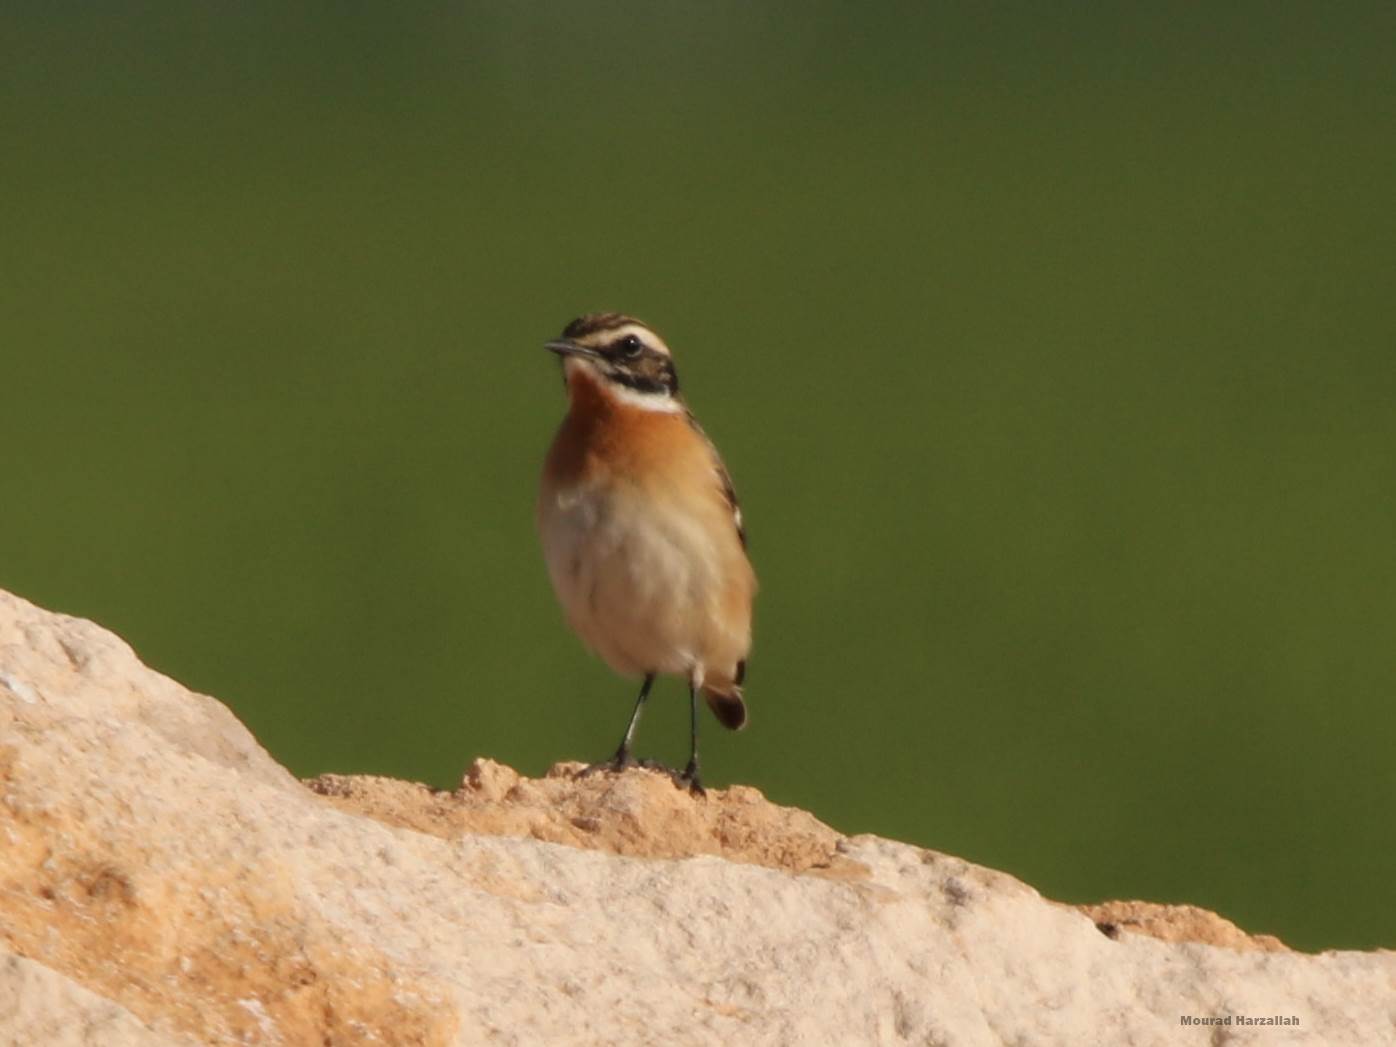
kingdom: Animalia
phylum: Chordata
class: Aves
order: Passeriformes
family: Muscicapidae
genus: Saxicola
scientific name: Saxicola rubetra
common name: Whinchat
